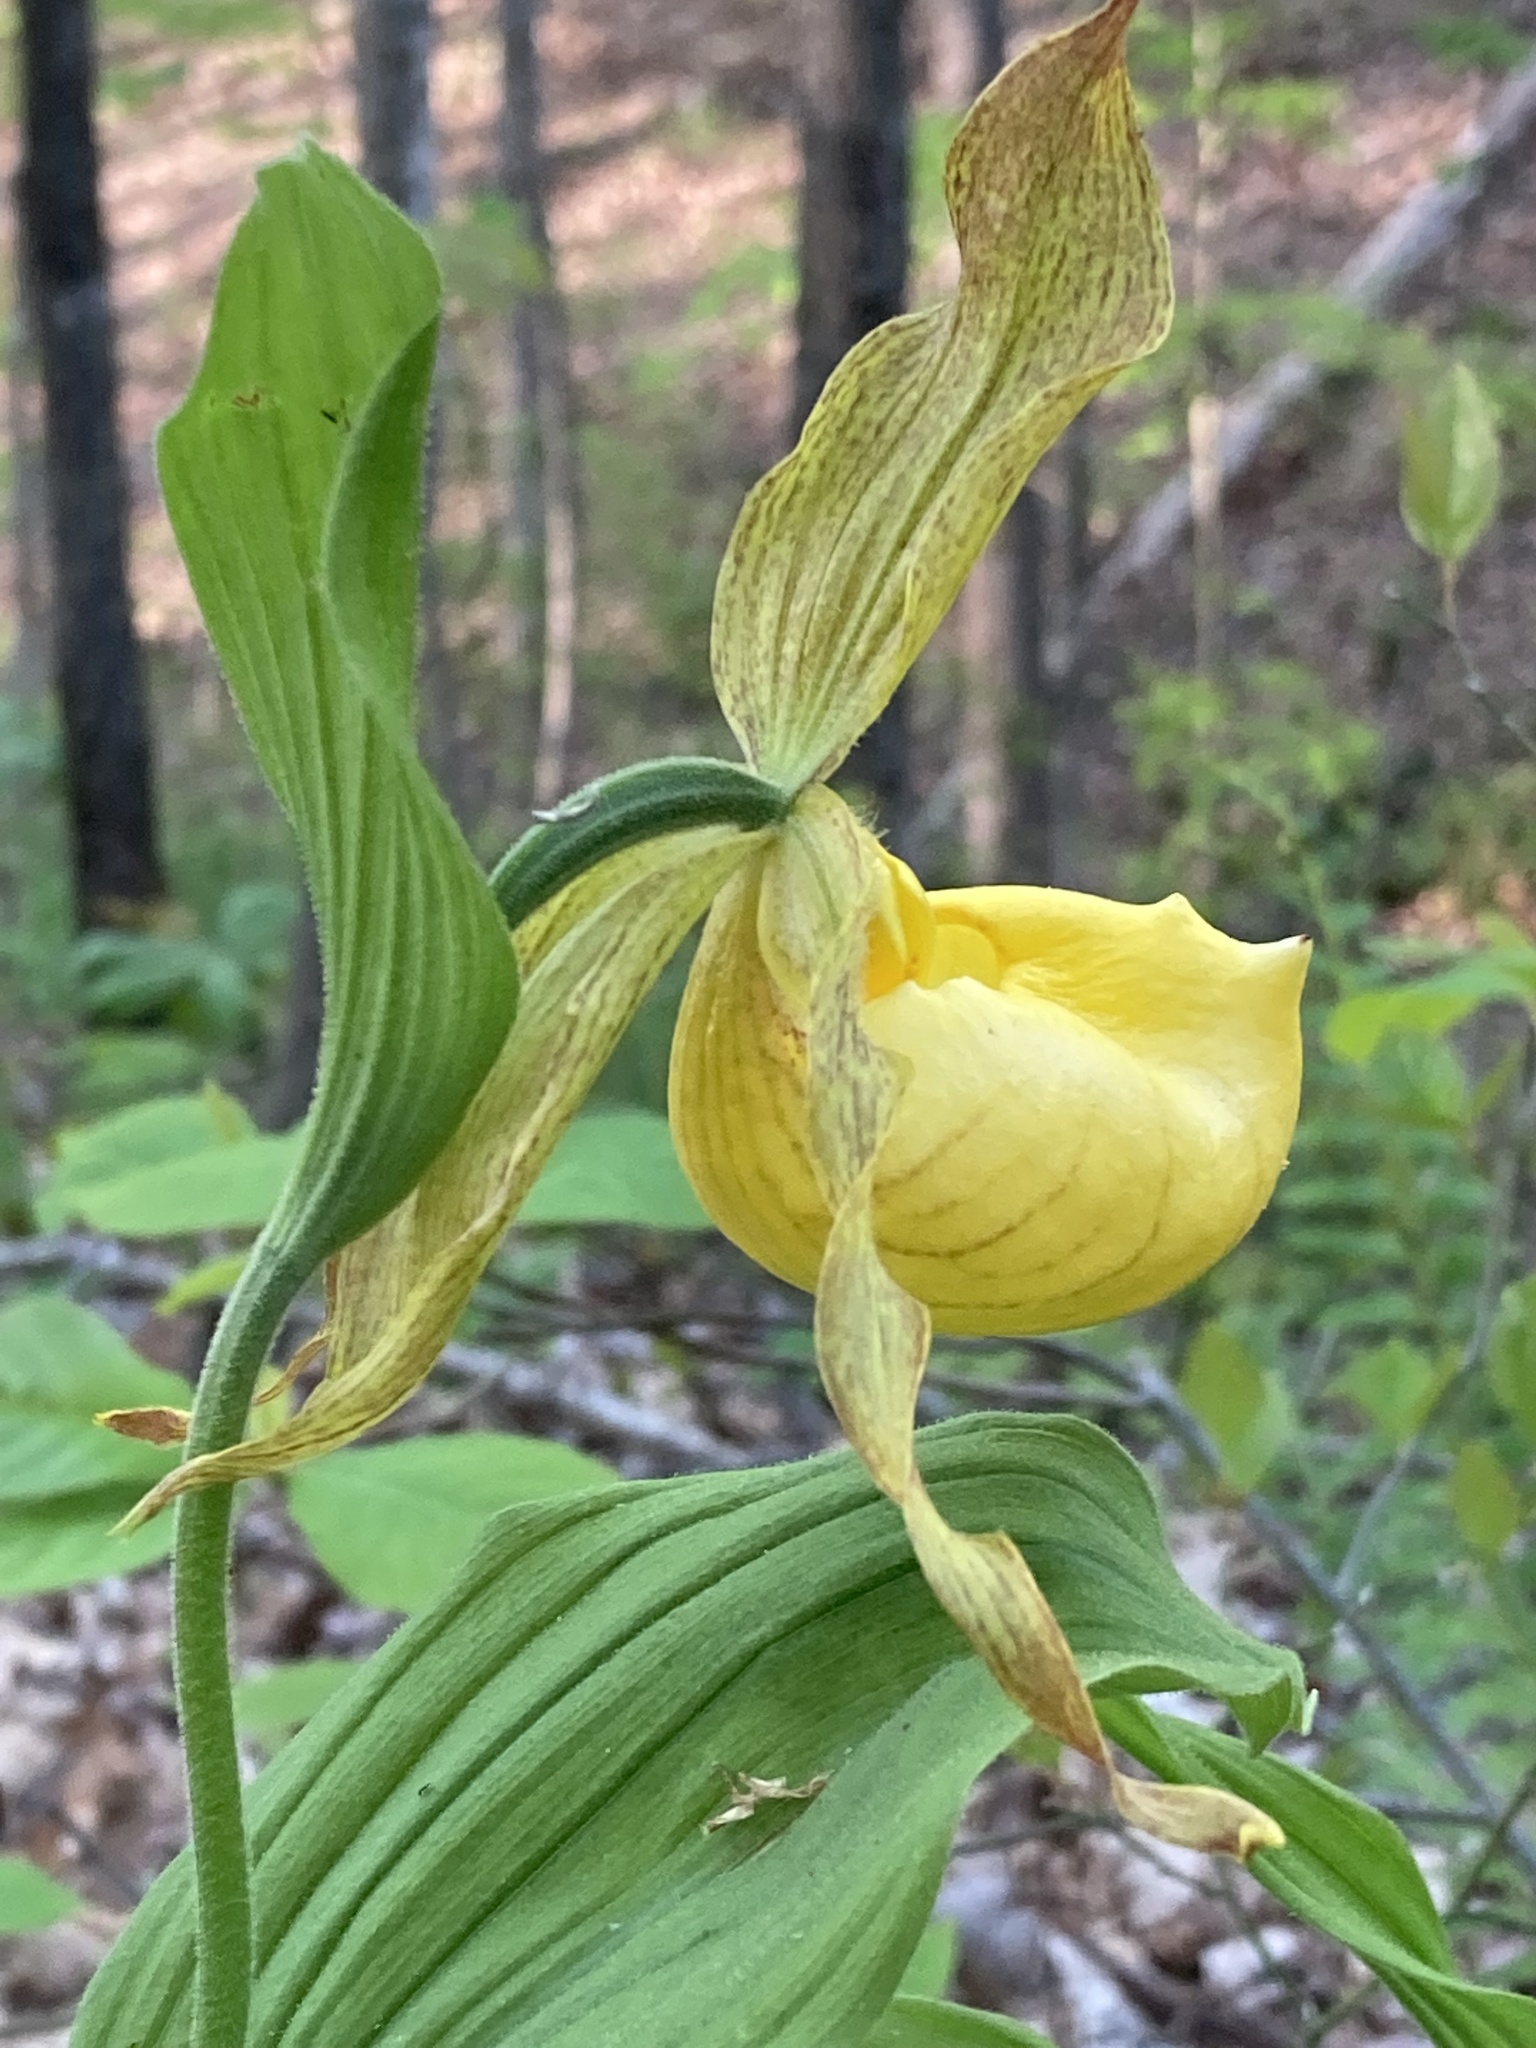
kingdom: Plantae
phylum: Tracheophyta
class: Liliopsida
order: Asparagales
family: Orchidaceae
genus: Cypripedium
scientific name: Cypripedium parviflorum
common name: American yellow lady's-slipper
